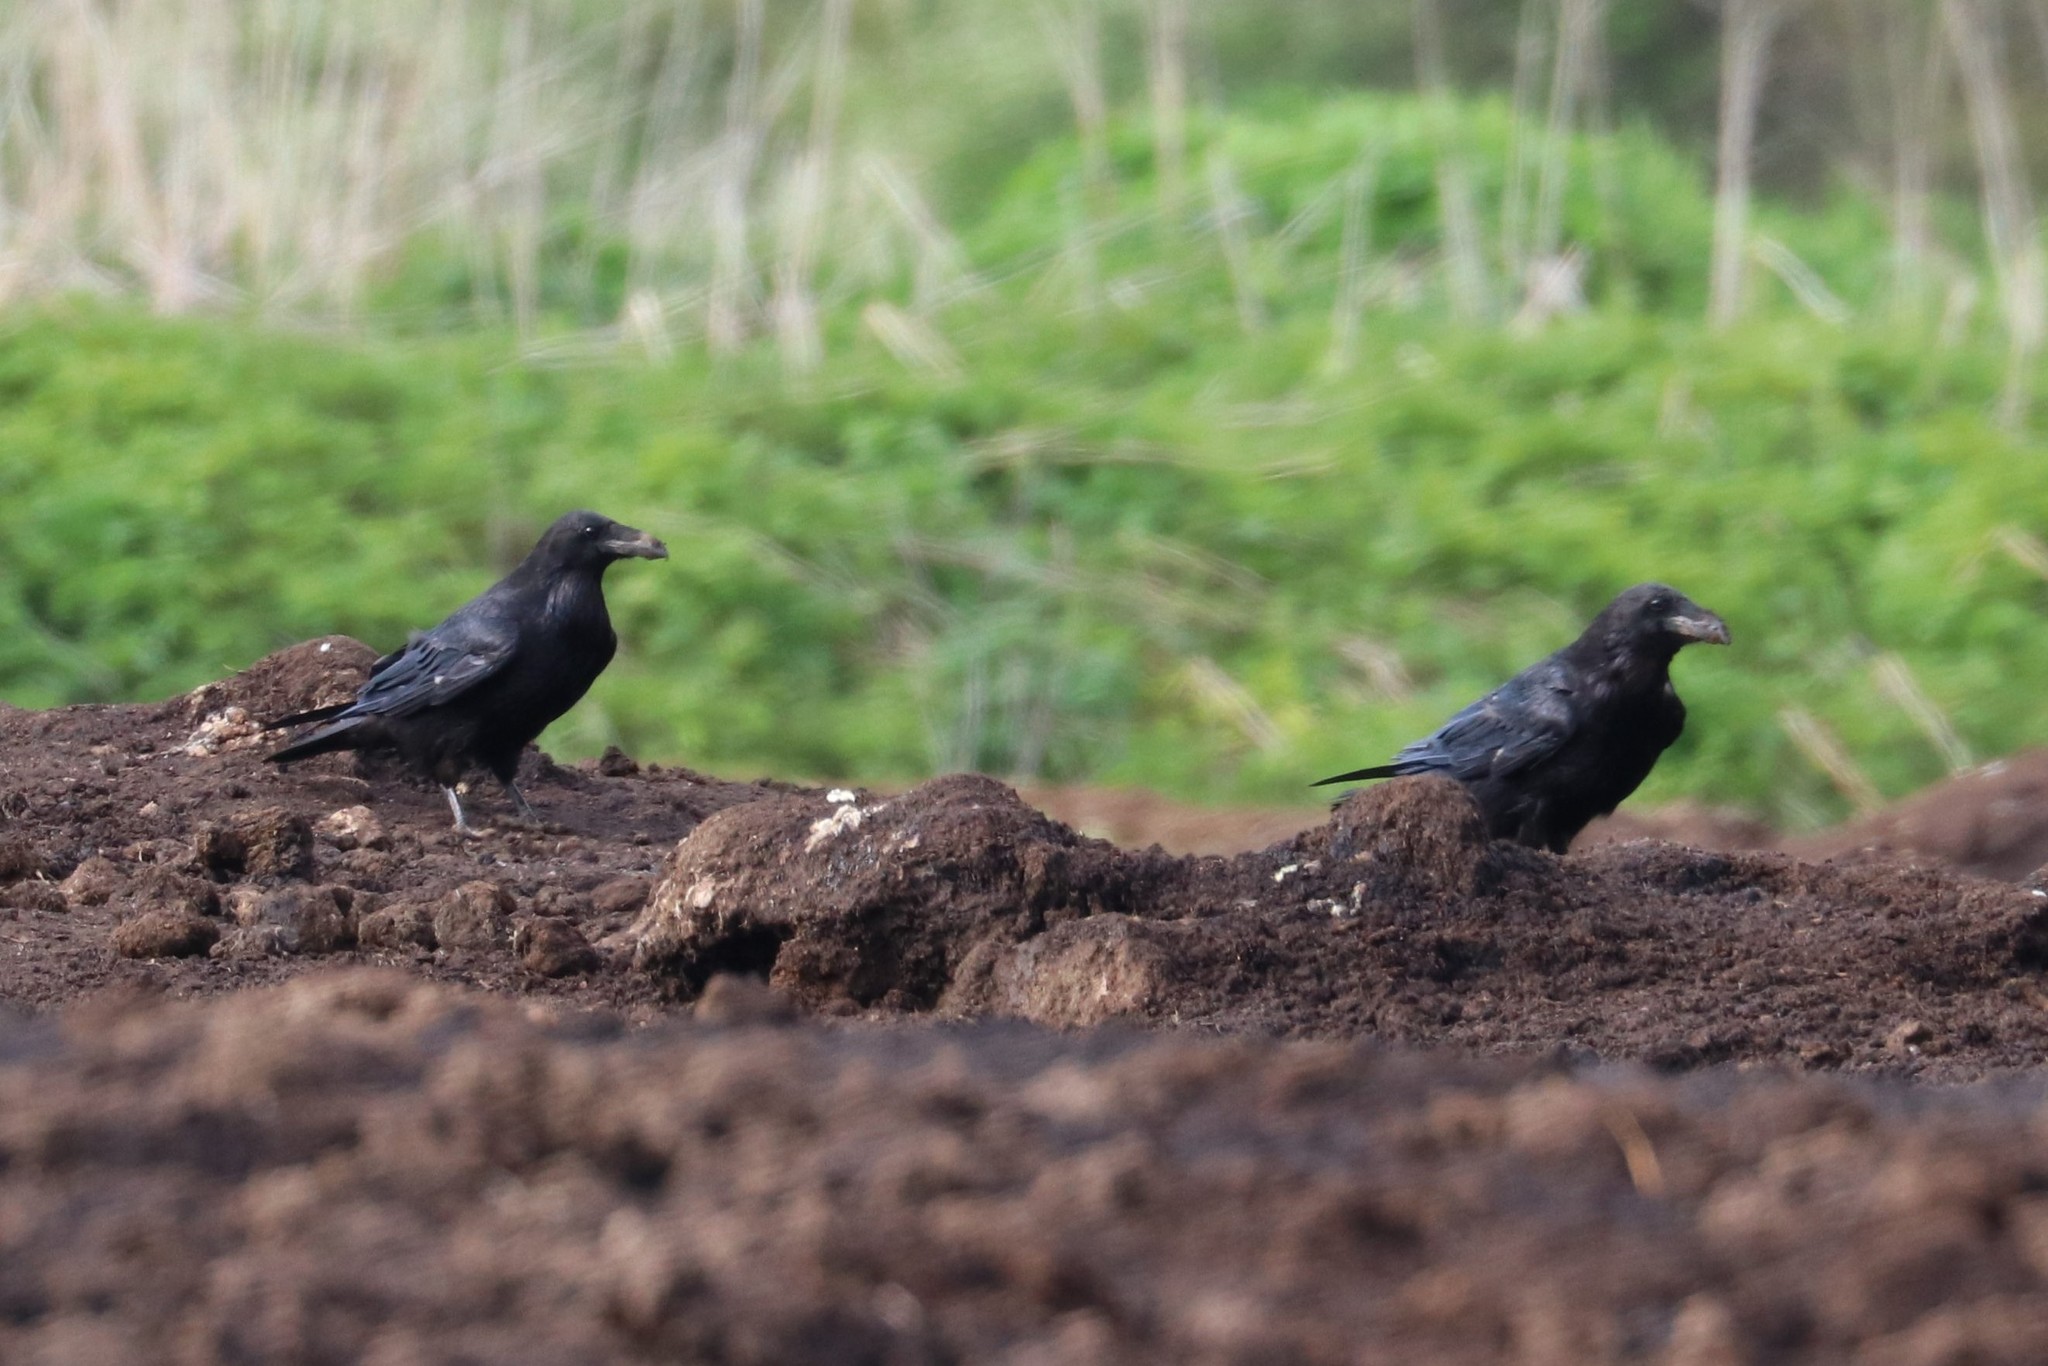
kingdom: Animalia
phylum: Chordata
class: Aves
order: Passeriformes
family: Corvidae
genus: Corvus
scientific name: Corvus corax
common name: Common raven
